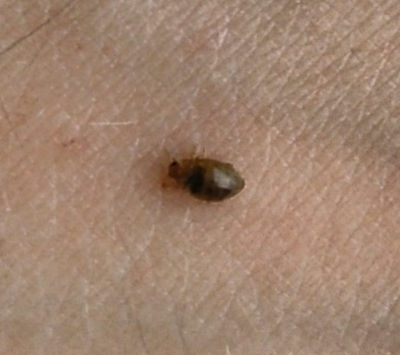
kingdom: Animalia
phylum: Arthropoda
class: Insecta
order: Coleoptera
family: Coccinellidae
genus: Rhyzobius
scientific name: Rhyzobius litura
